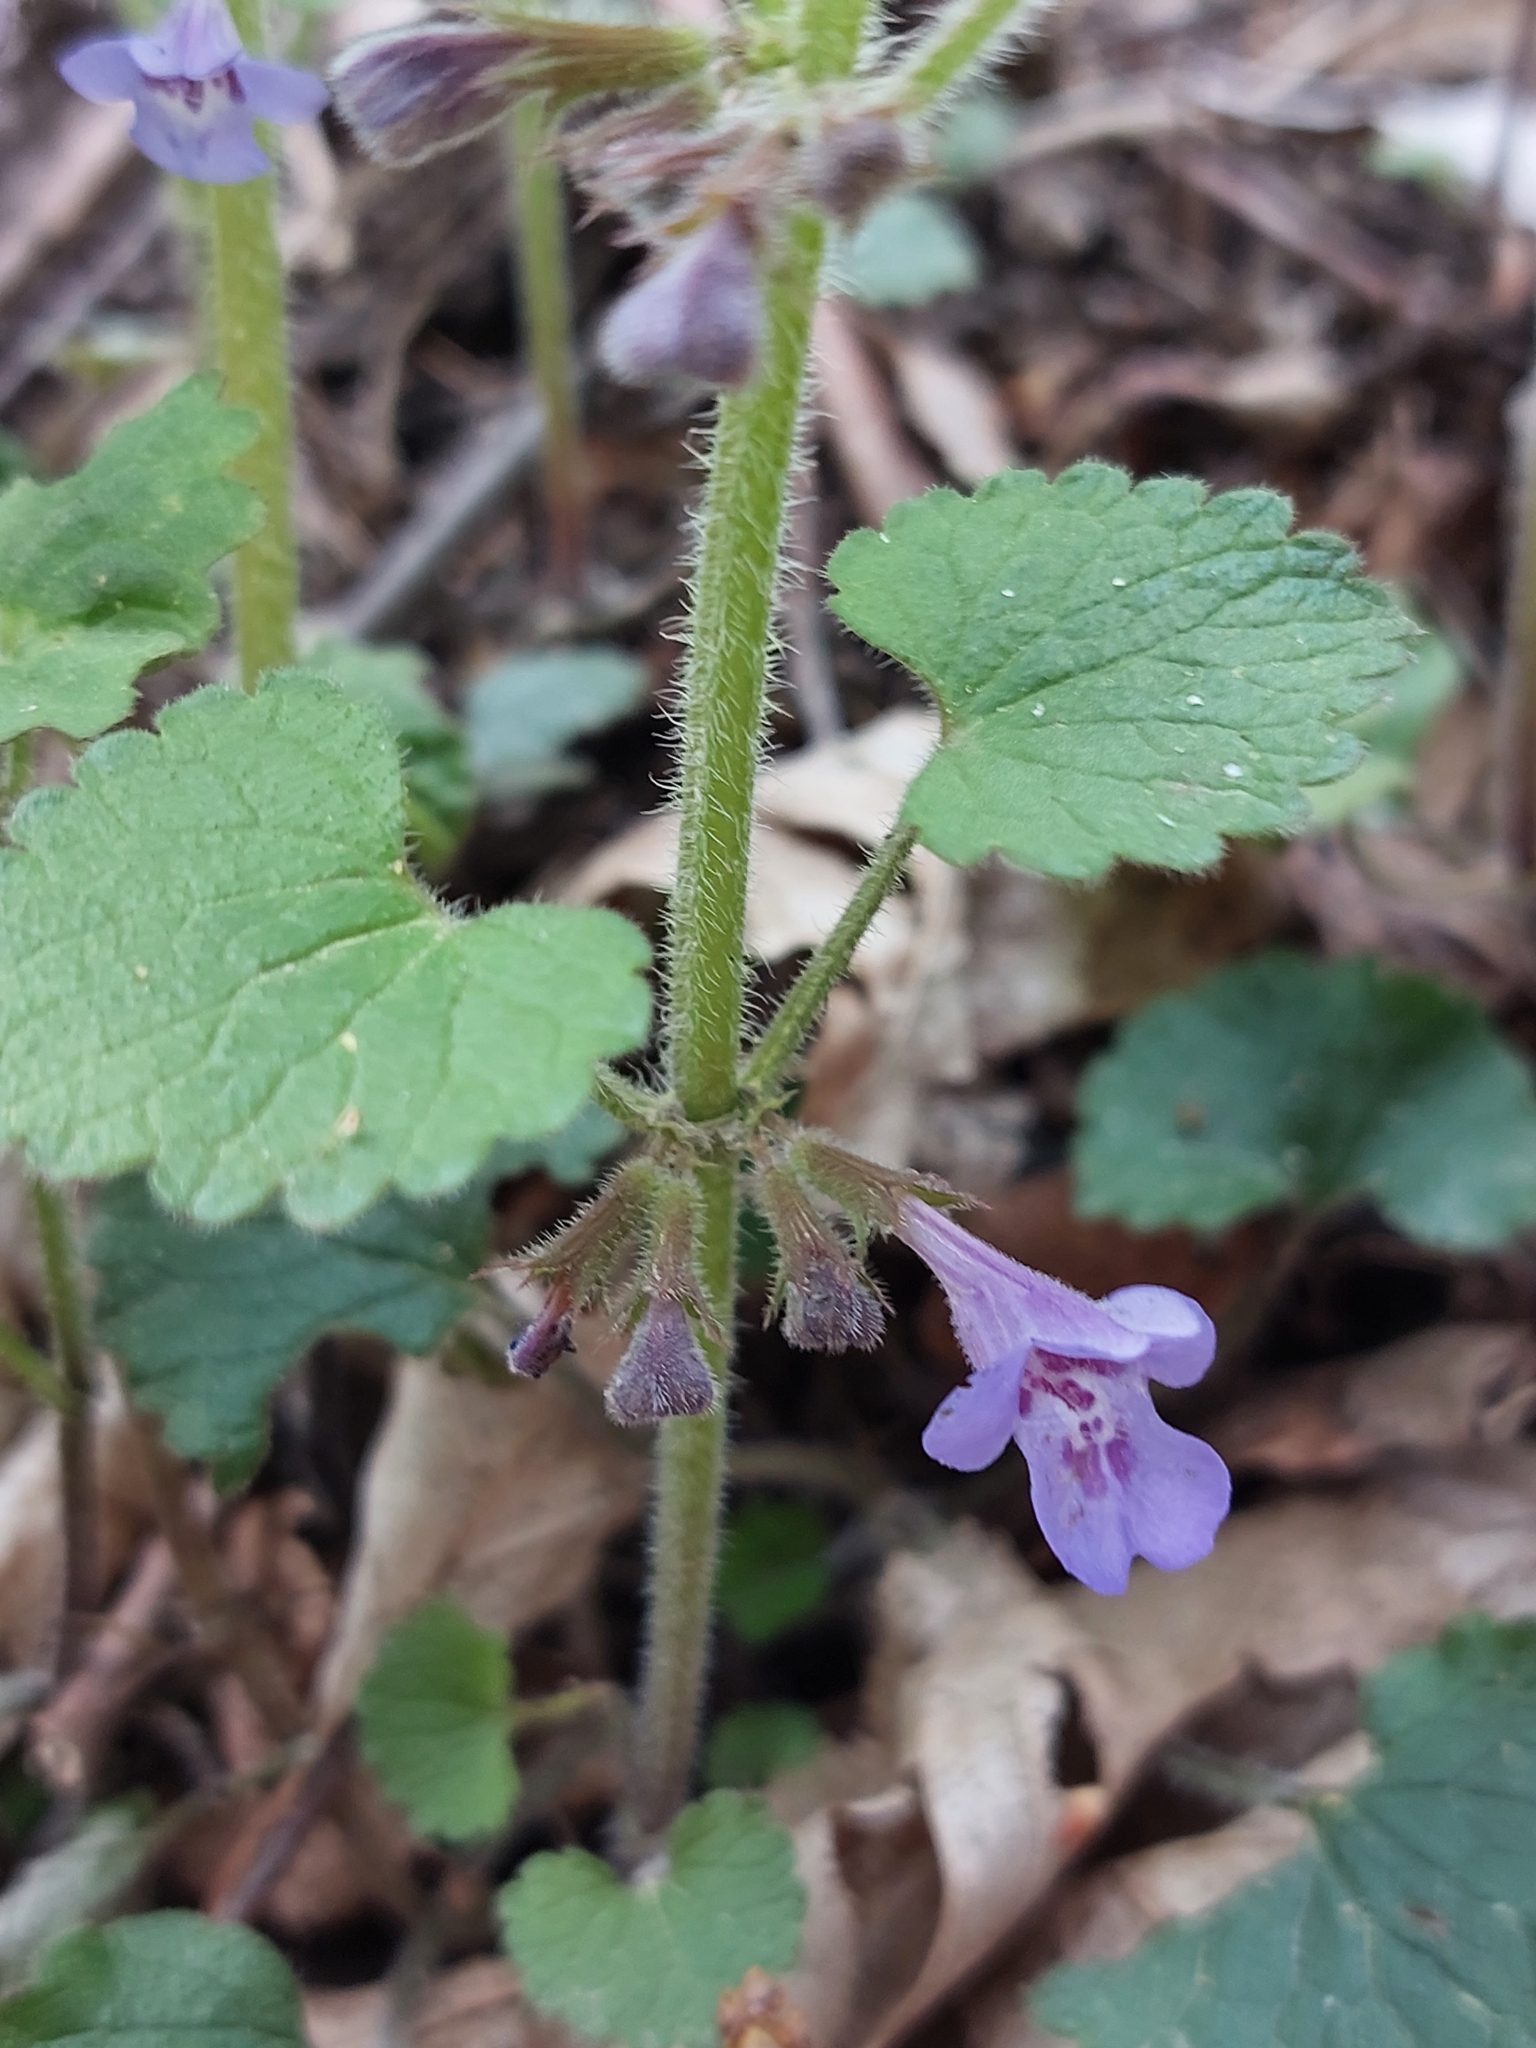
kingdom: Plantae
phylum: Tracheophyta
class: Magnoliopsida
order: Lamiales
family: Lamiaceae
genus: Glechoma
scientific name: Glechoma hirsuta
